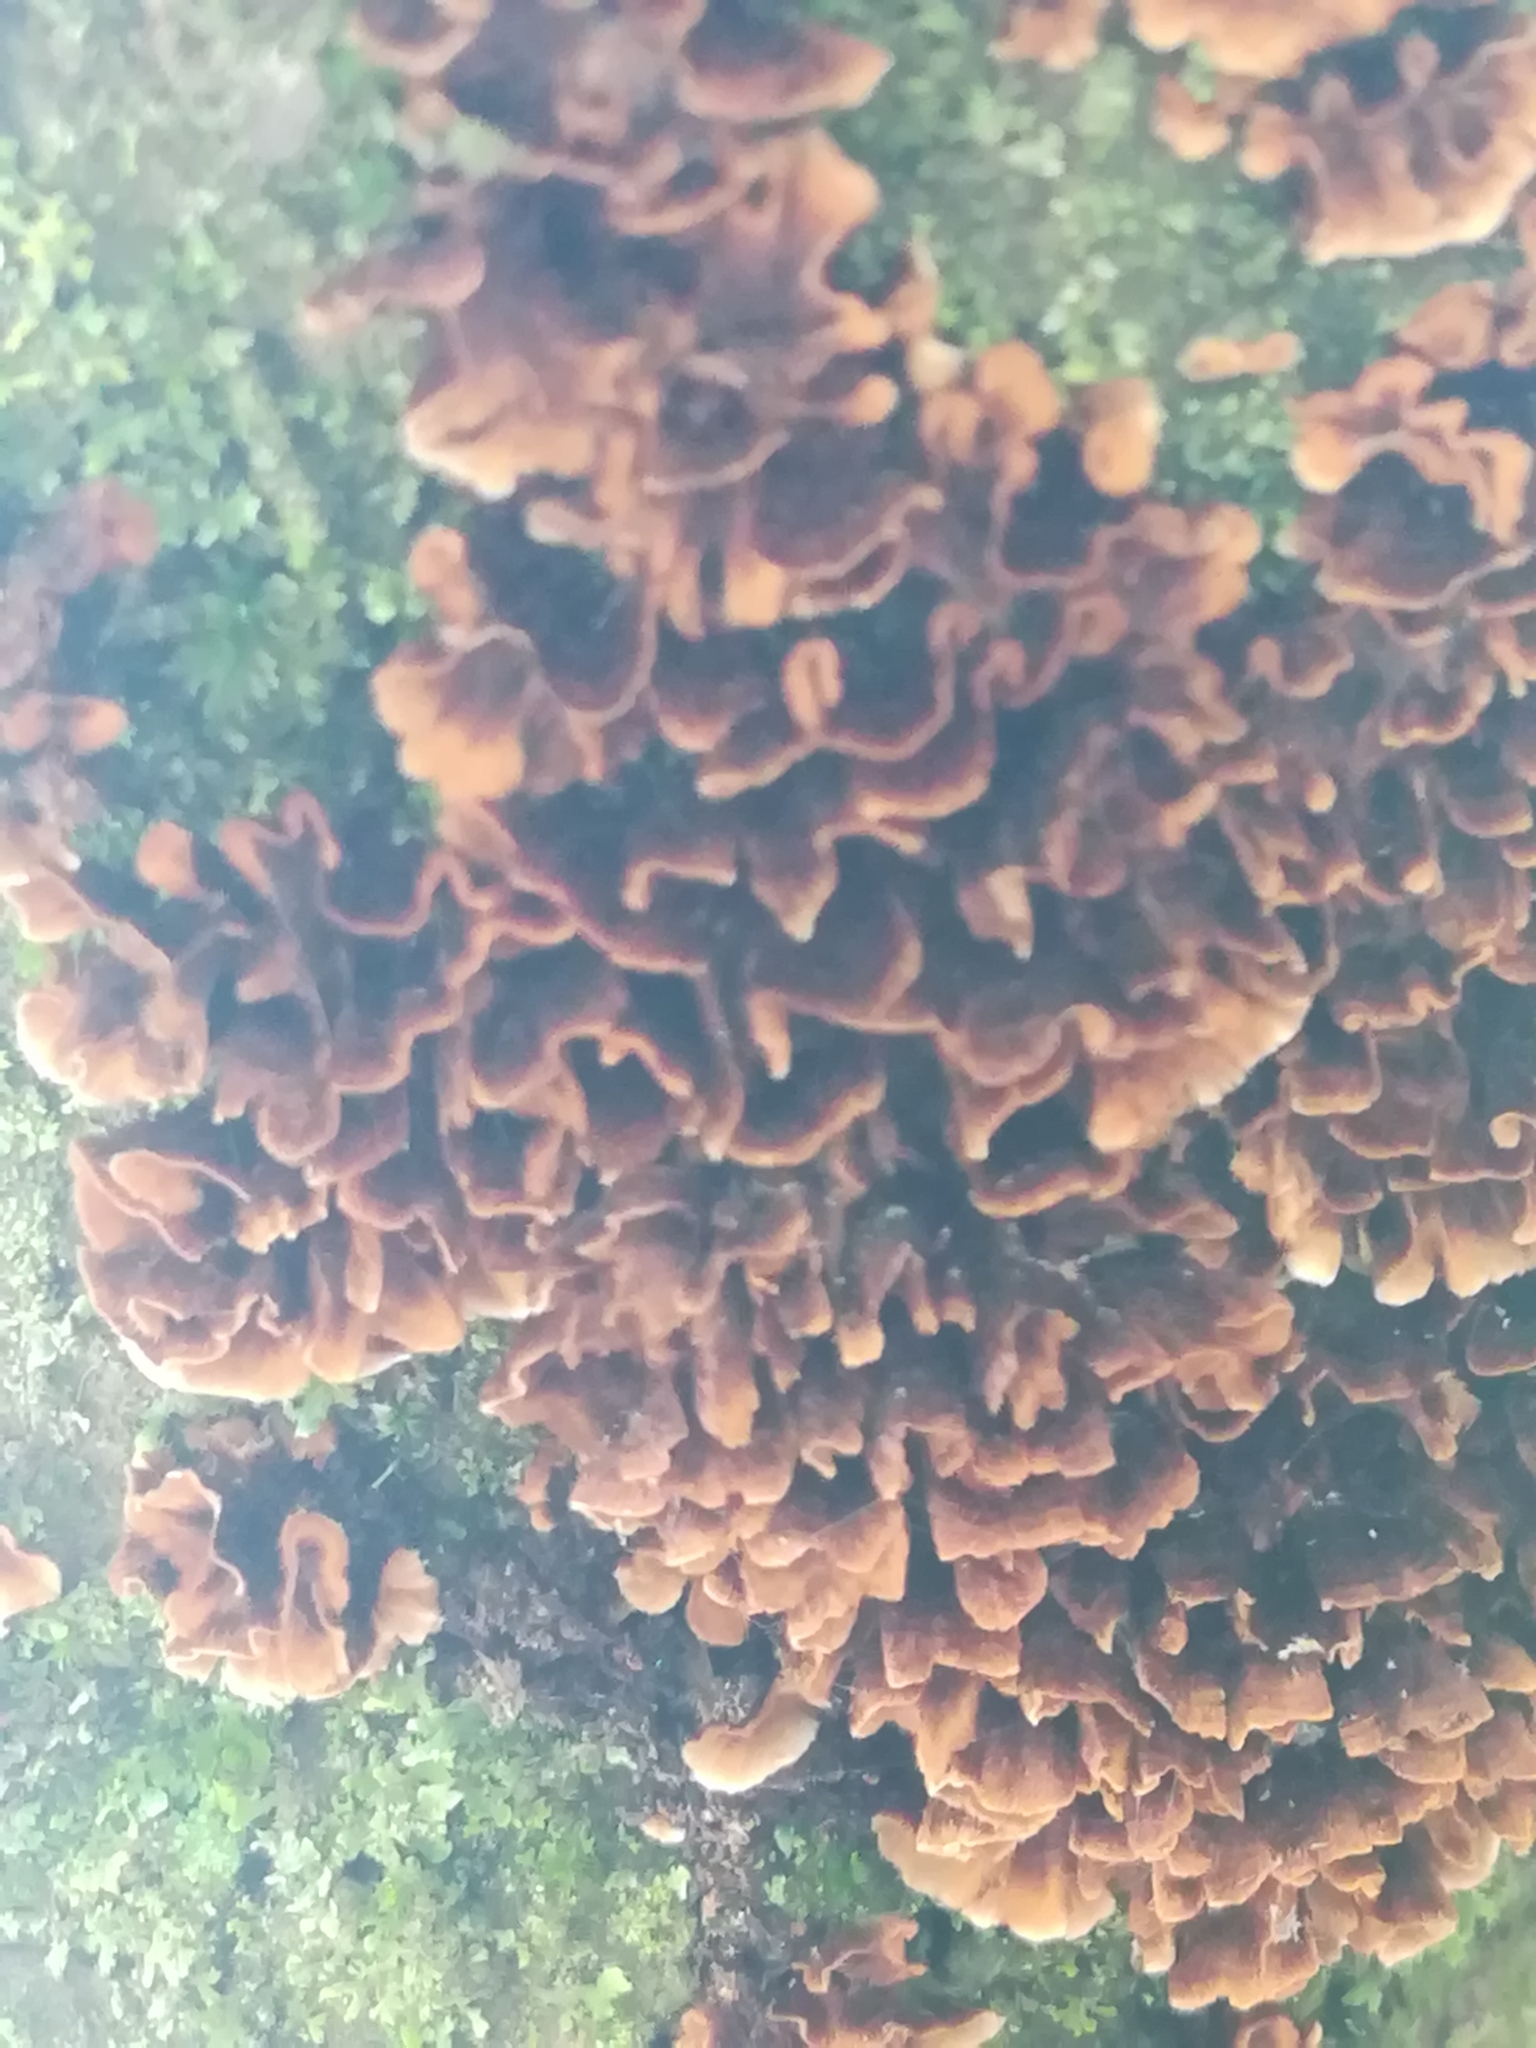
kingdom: Fungi
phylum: Basidiomycota
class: Agaricomycetes
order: Russulales
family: Stereaceae
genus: Stereum
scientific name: Stereum complicatum
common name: Crowded parchment
